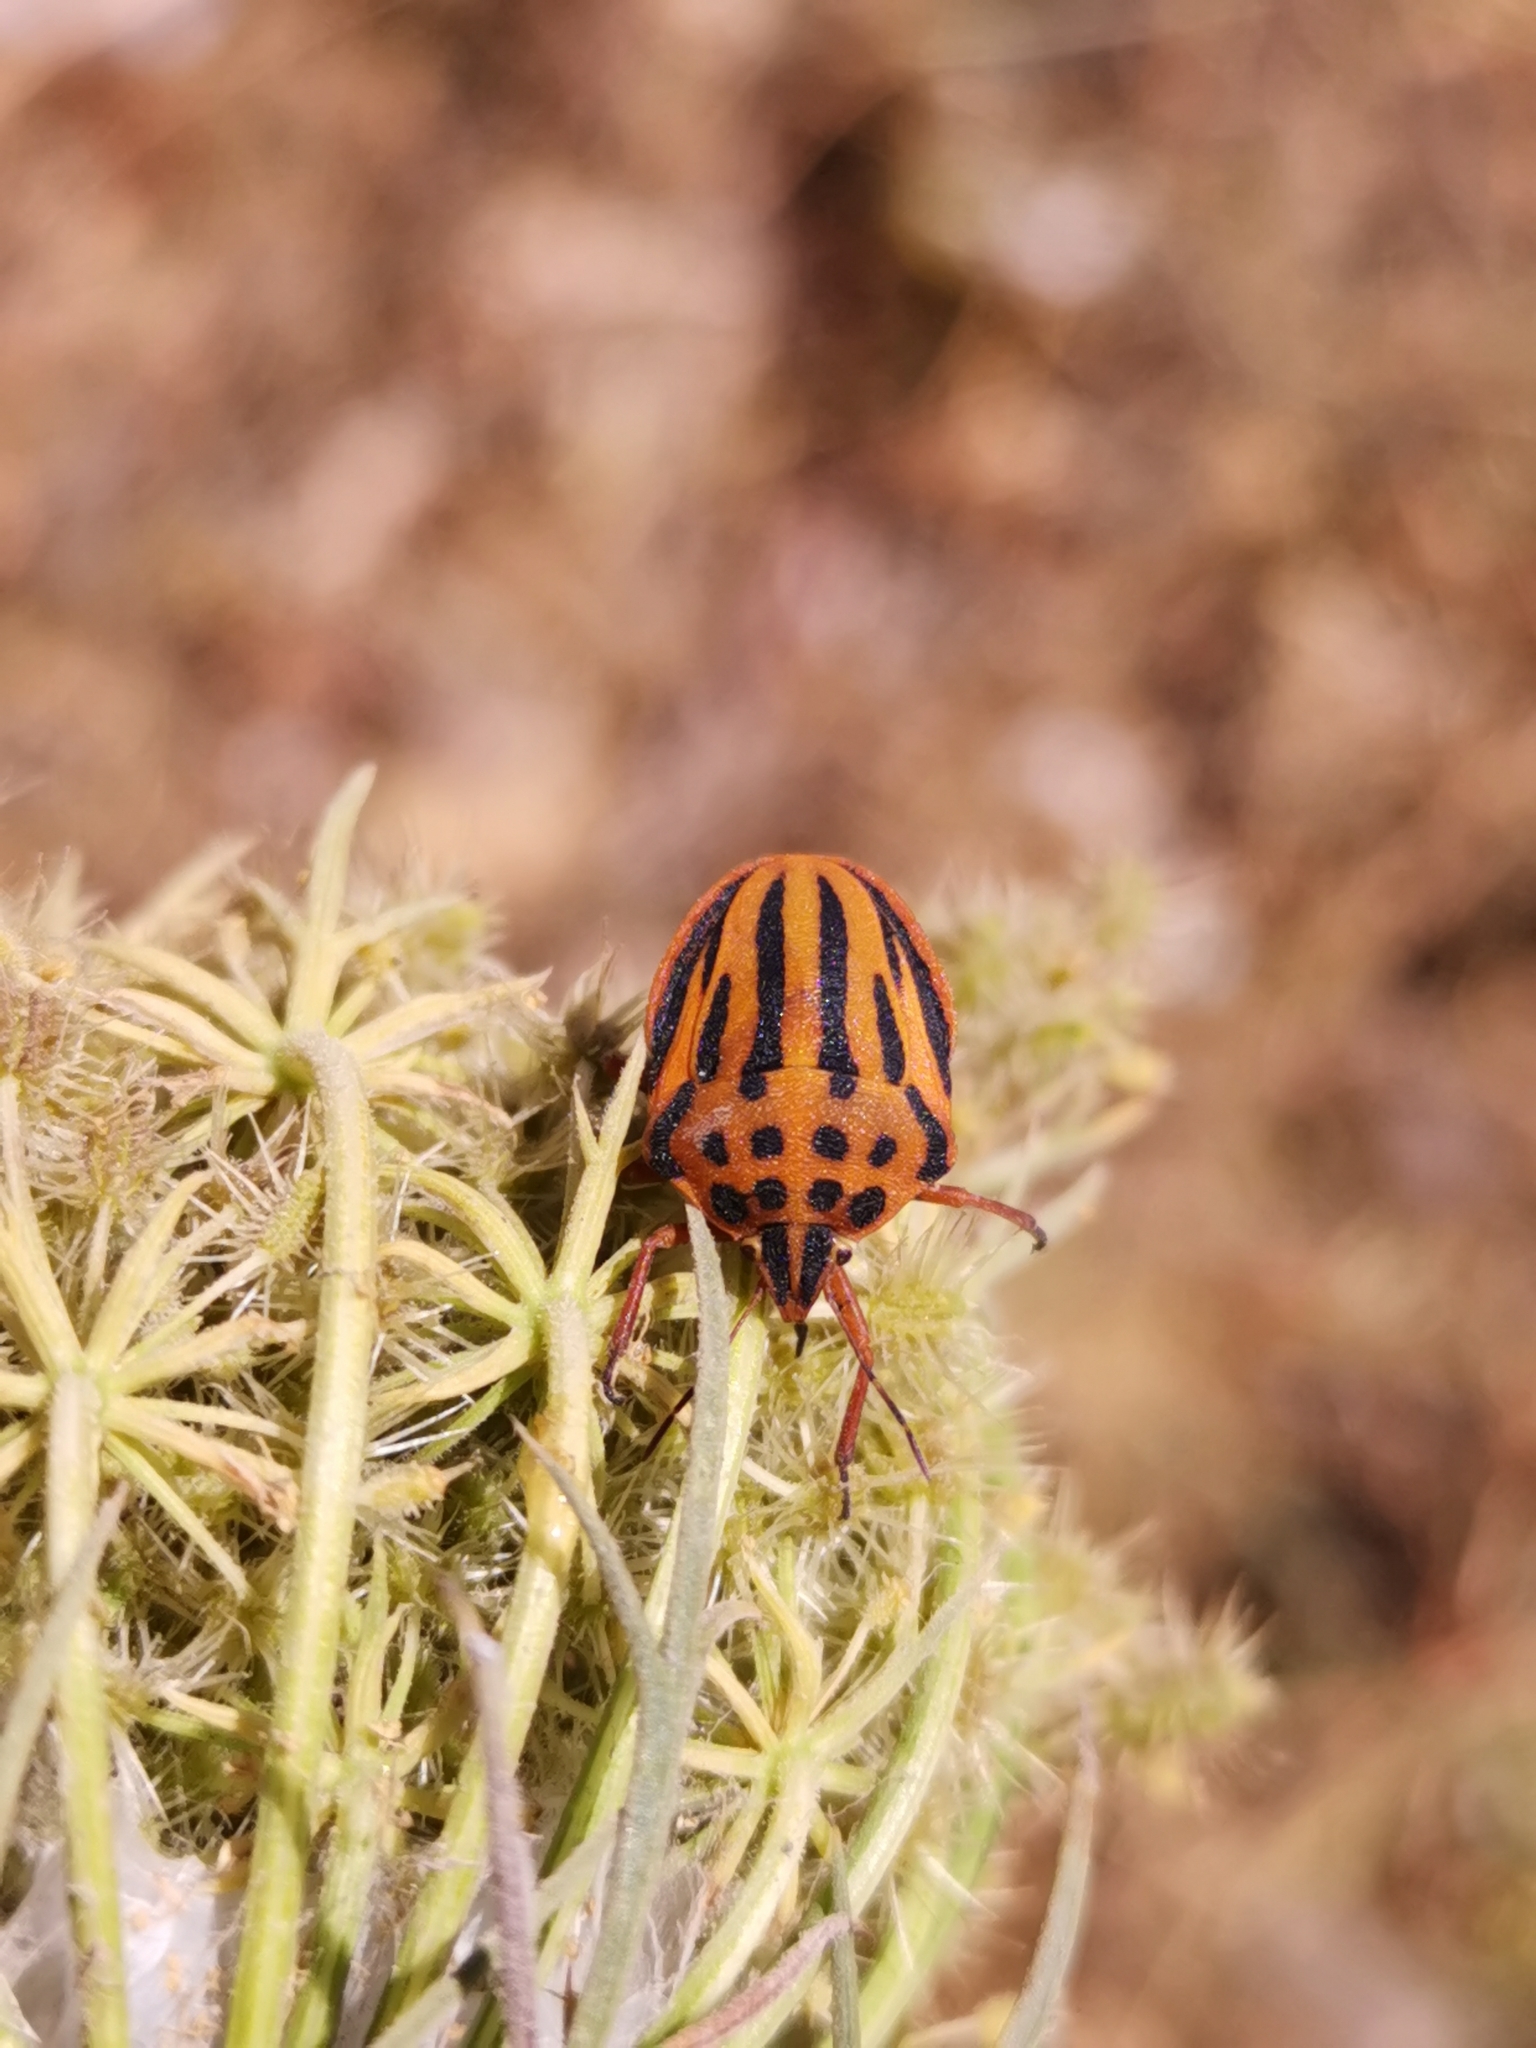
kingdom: Animalia
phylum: Arthropoda
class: Insecta
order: Hemiptera
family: Pentatomidae
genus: Graphosoma
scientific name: Graphosoma semipunctatum
